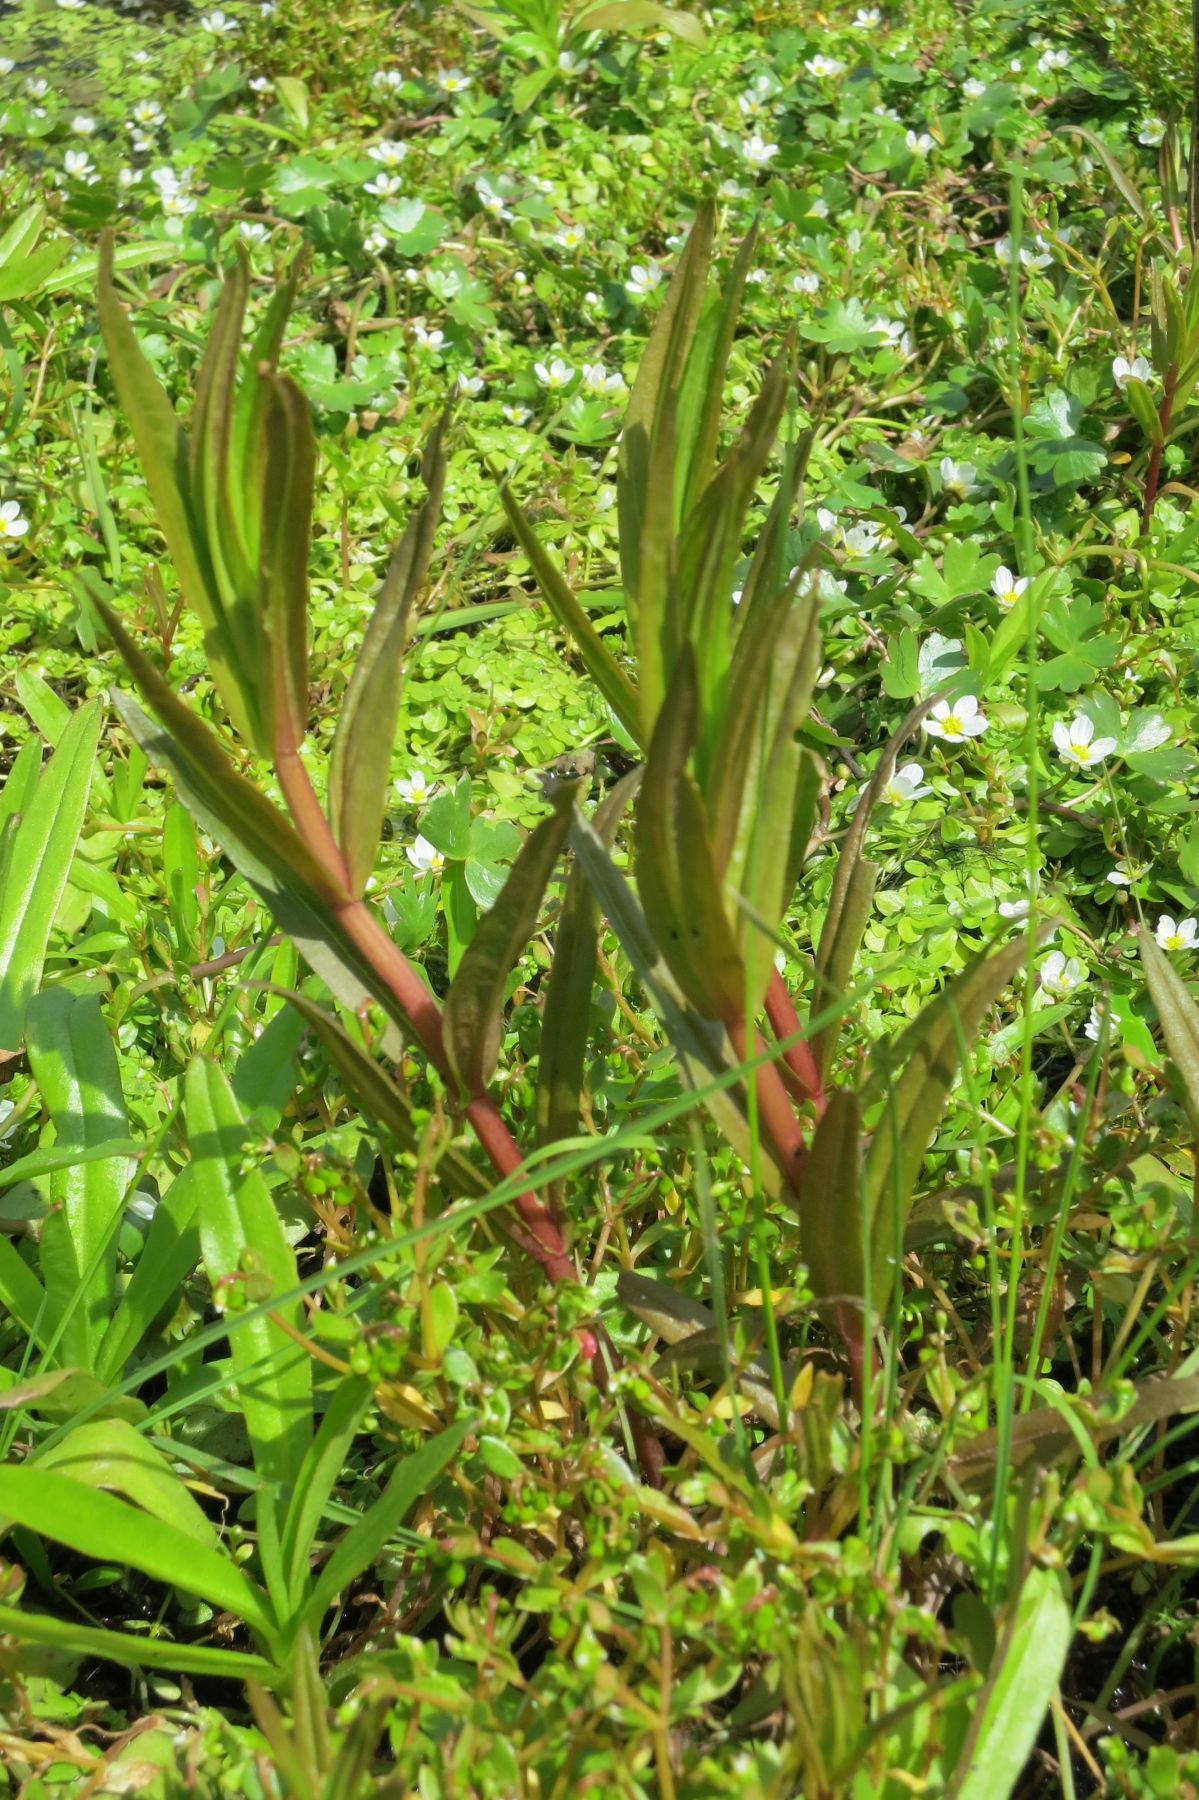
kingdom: Plantae
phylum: Tracheophyta
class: Magnoliopsida
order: Lamiales
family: Plantaginaceae
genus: Veronica
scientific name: Veronica scutellata
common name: Marsh speedwell
